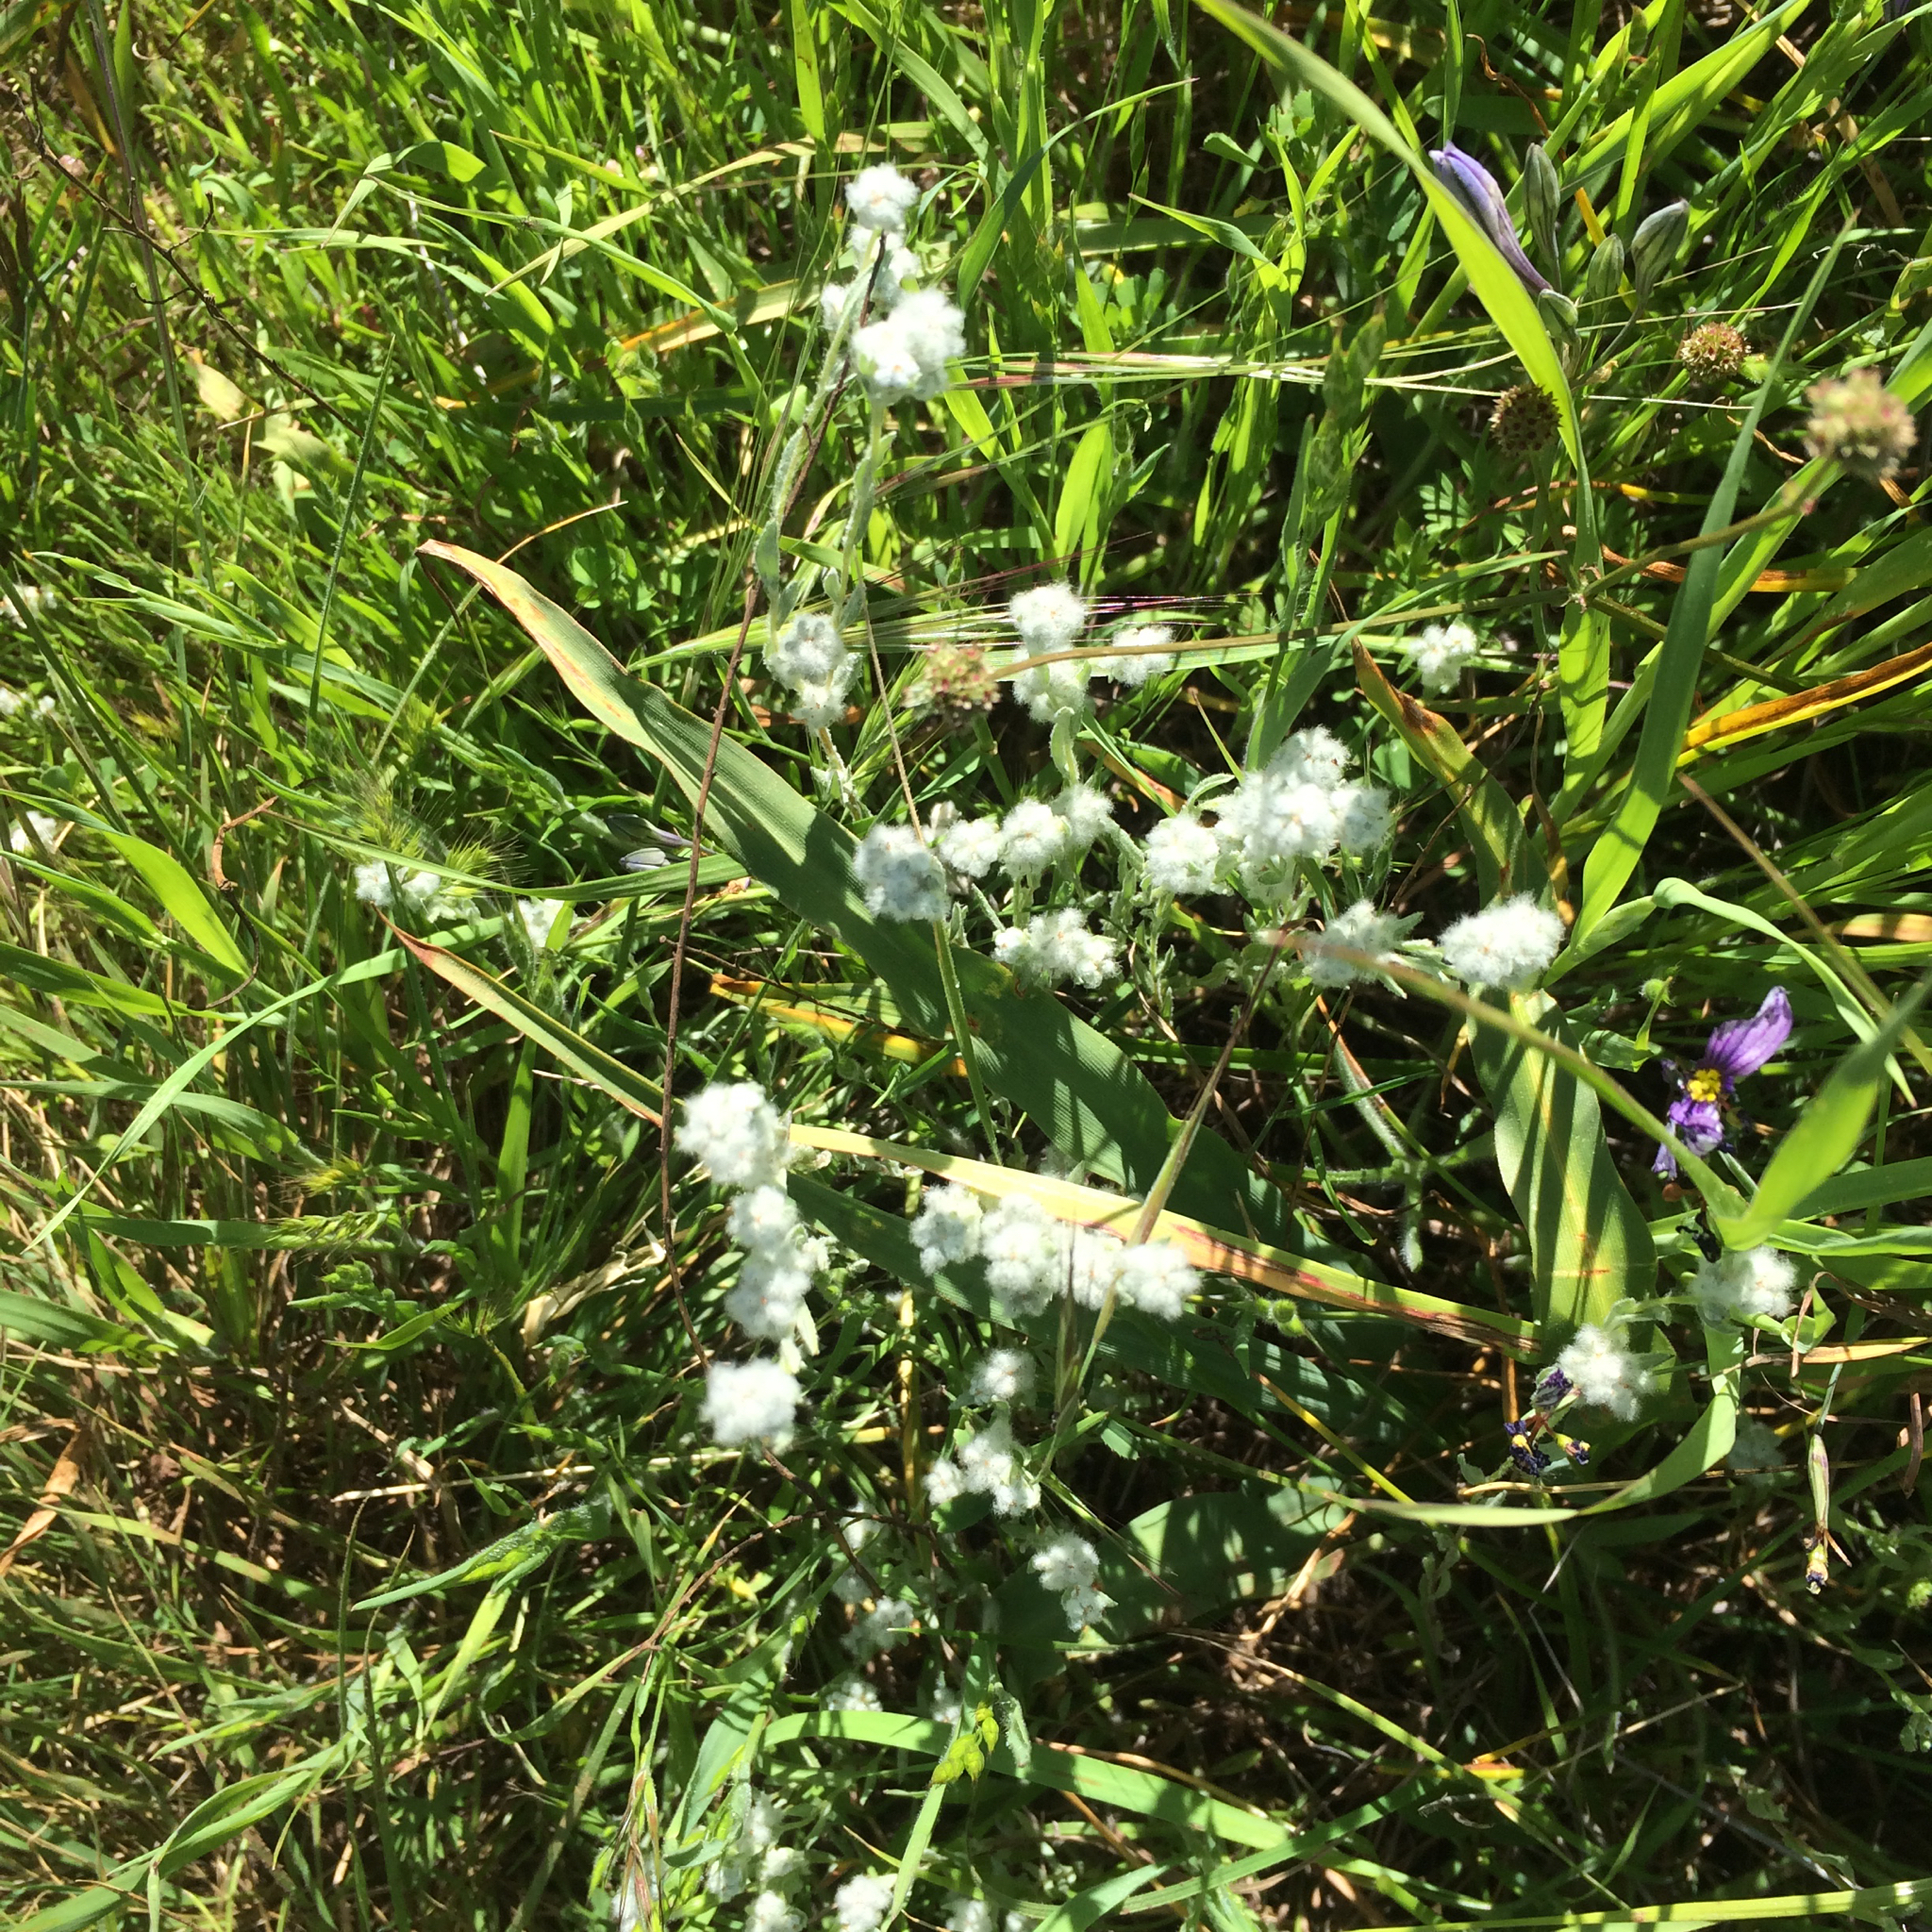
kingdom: Plantae
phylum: Tracheophyta
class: Magnoliopsida
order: Asterales
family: Asteraceae
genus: Bombycilaena
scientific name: Bombycilaena californica
